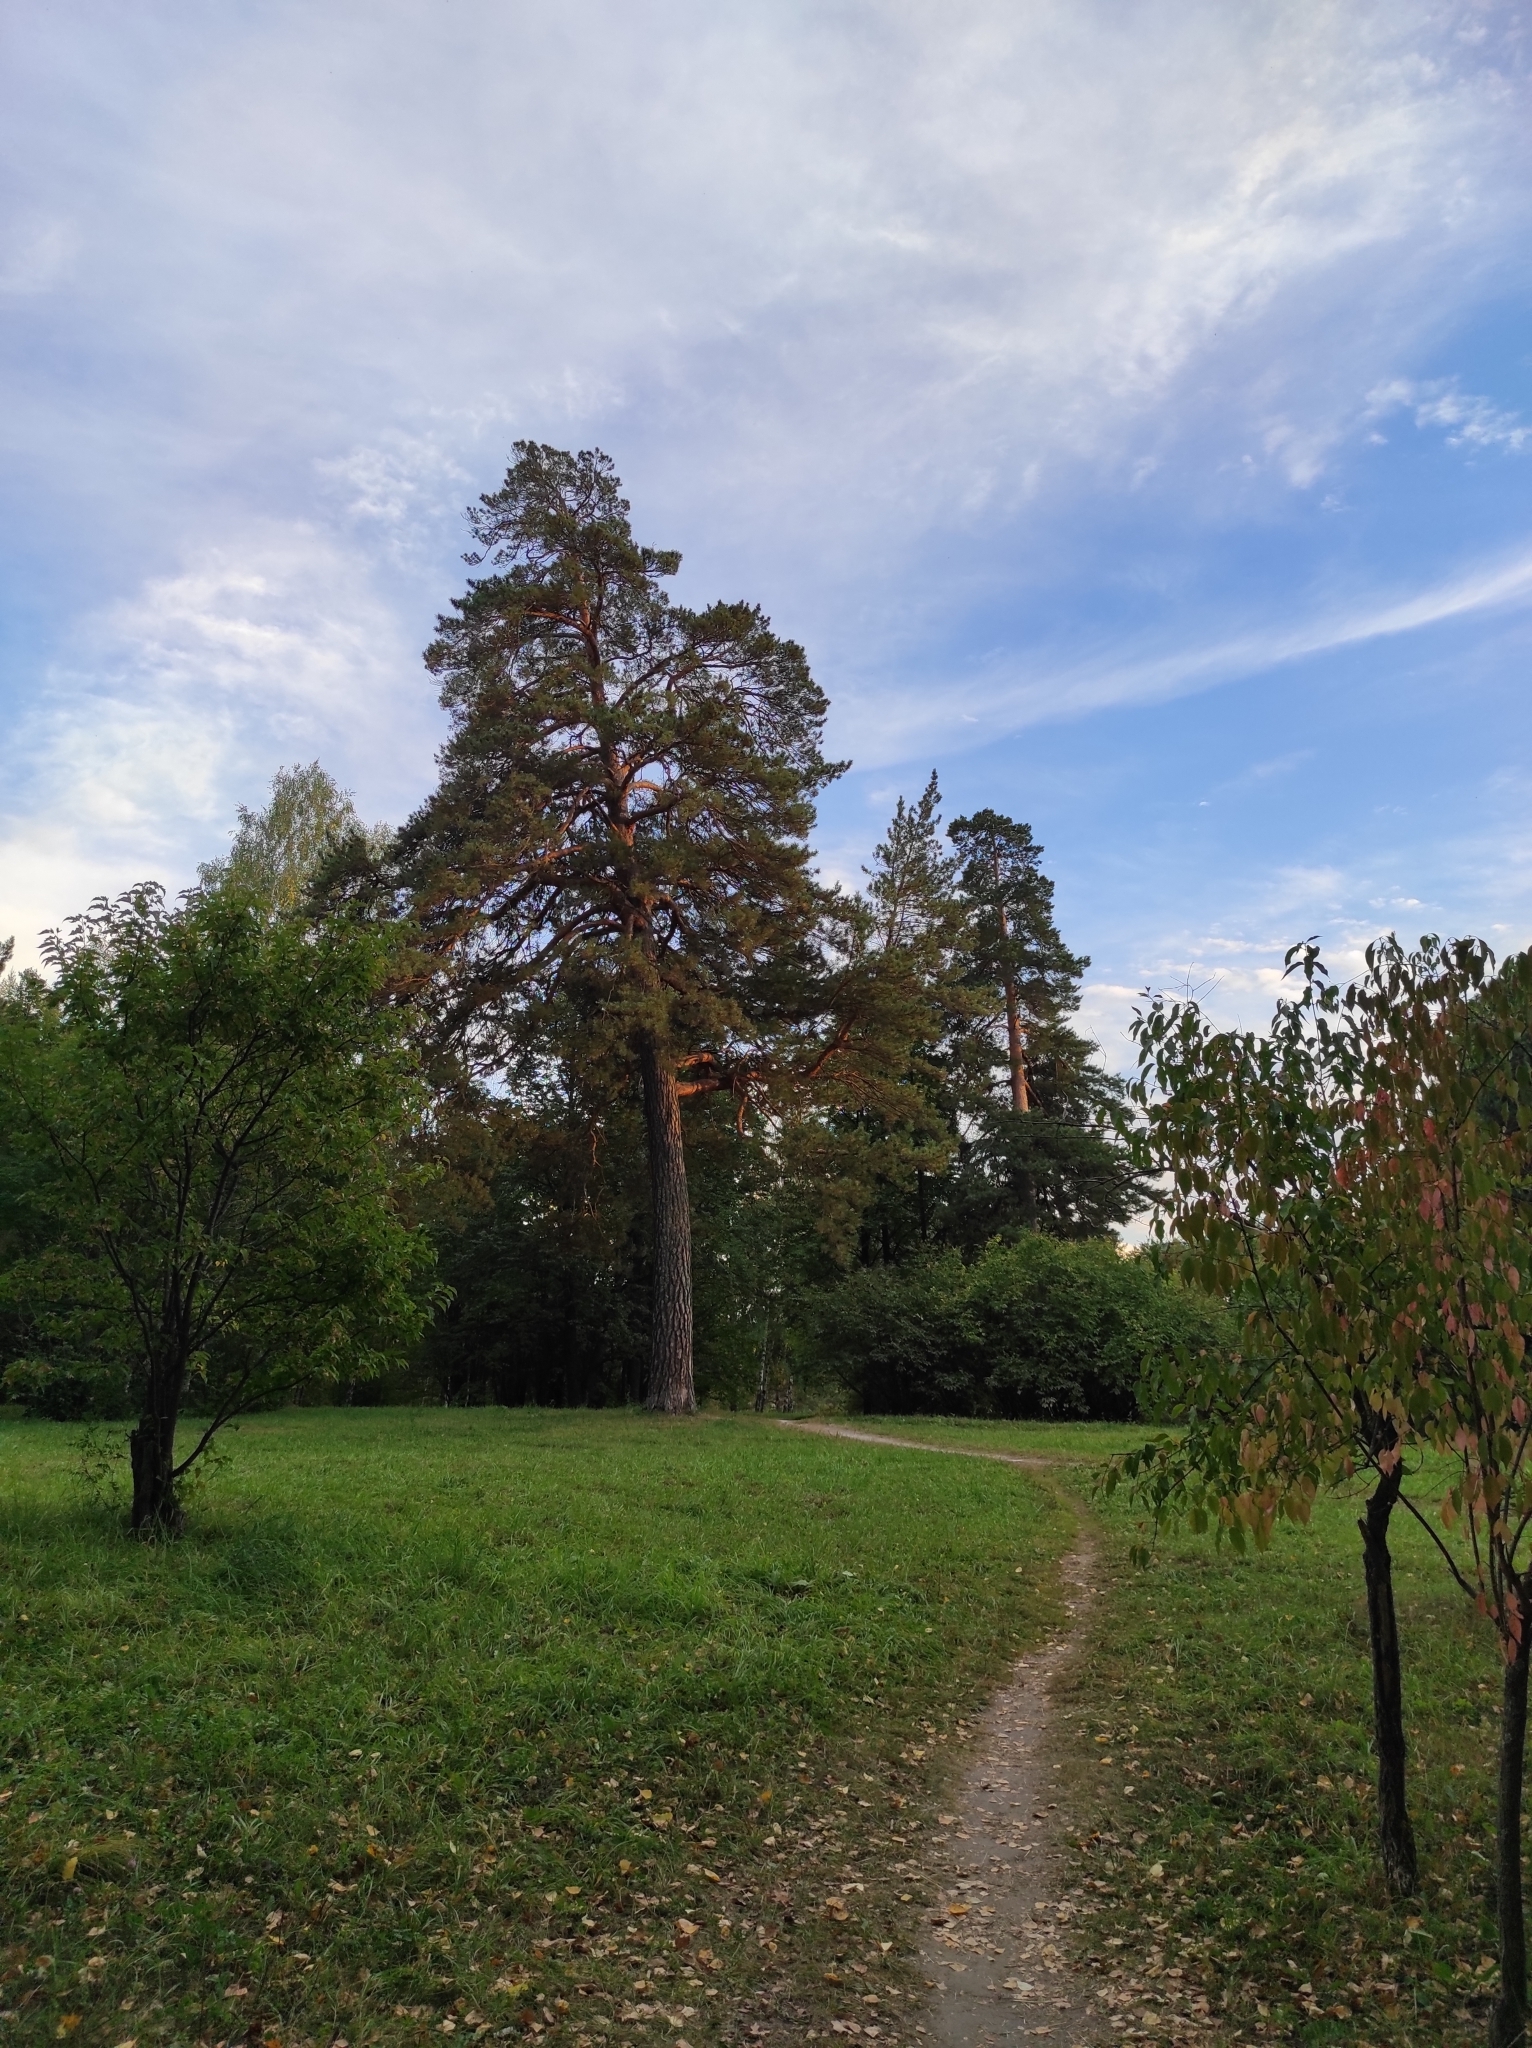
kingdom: Plantae
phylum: Tracheophyta
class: Pinopsida
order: Pinales
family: Pinaceae
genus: Pinus
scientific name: Pinus sylvestris
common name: Scots pine
